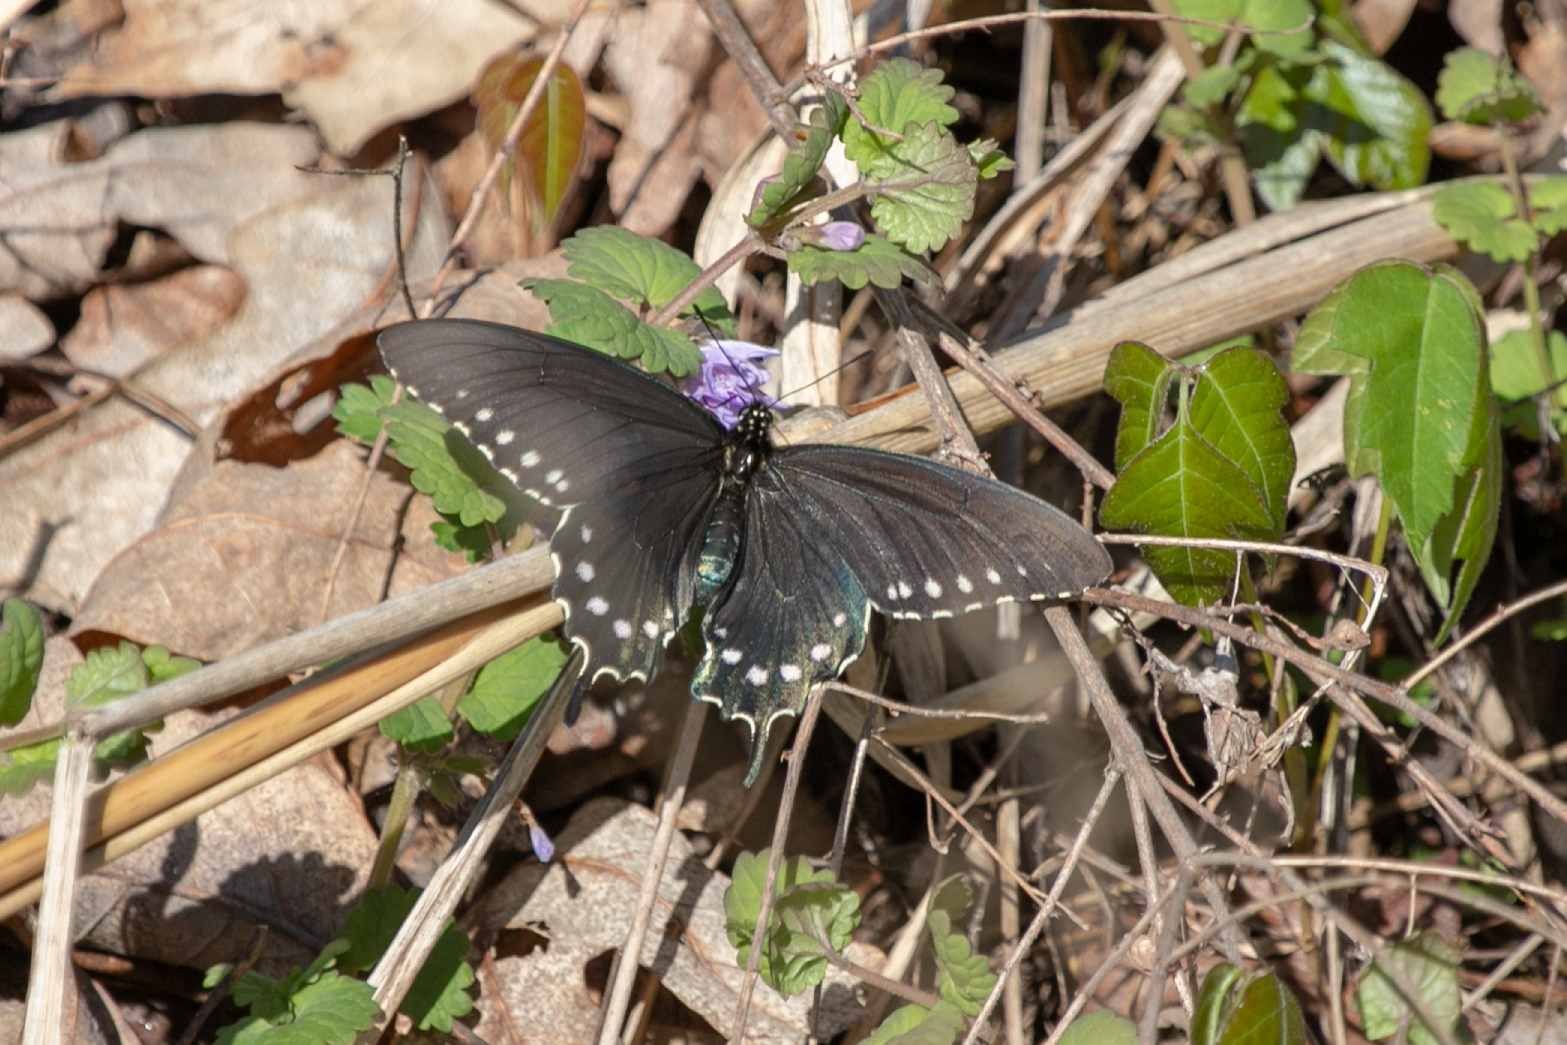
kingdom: Animalia
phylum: Arthropoda
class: Insecta
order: Lepidoptera
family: Papilionidae
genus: Battus
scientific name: Battus philenor
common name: Pipevine swallowtail
